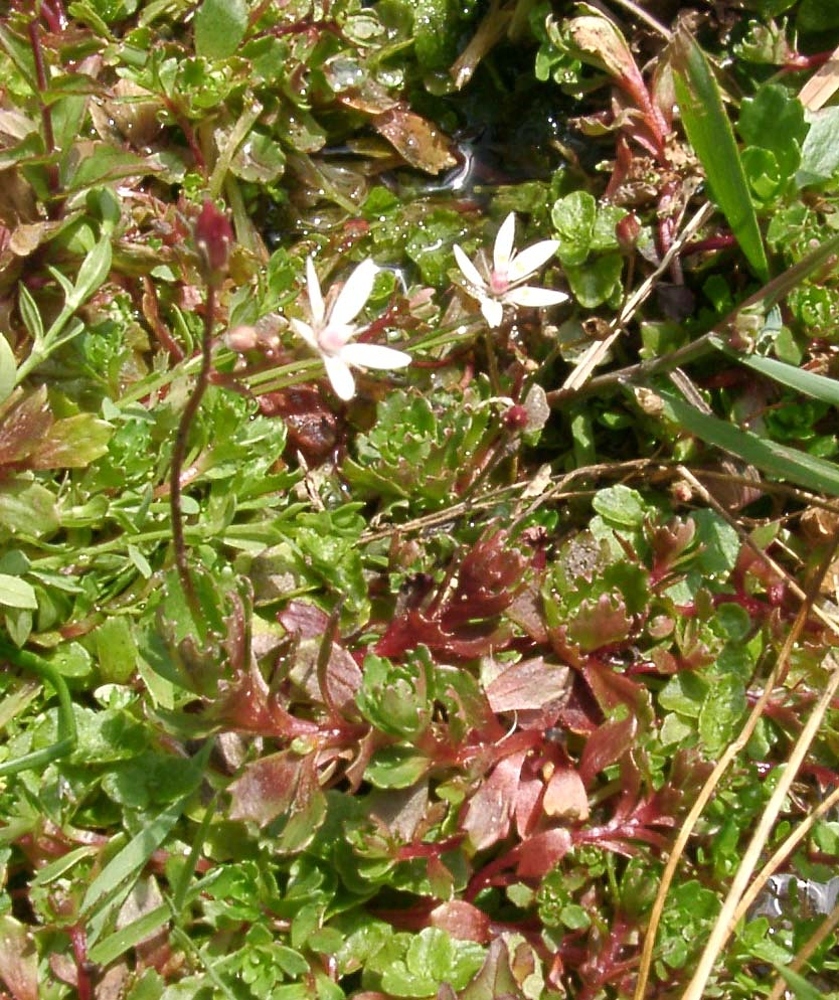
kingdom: Plantae
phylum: Tracheophyta
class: Magnoliopsida
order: Saxifragales
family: Saxifragaceae
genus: Micranthes
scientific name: Micranthes stellaris
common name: Starry saxifrage
